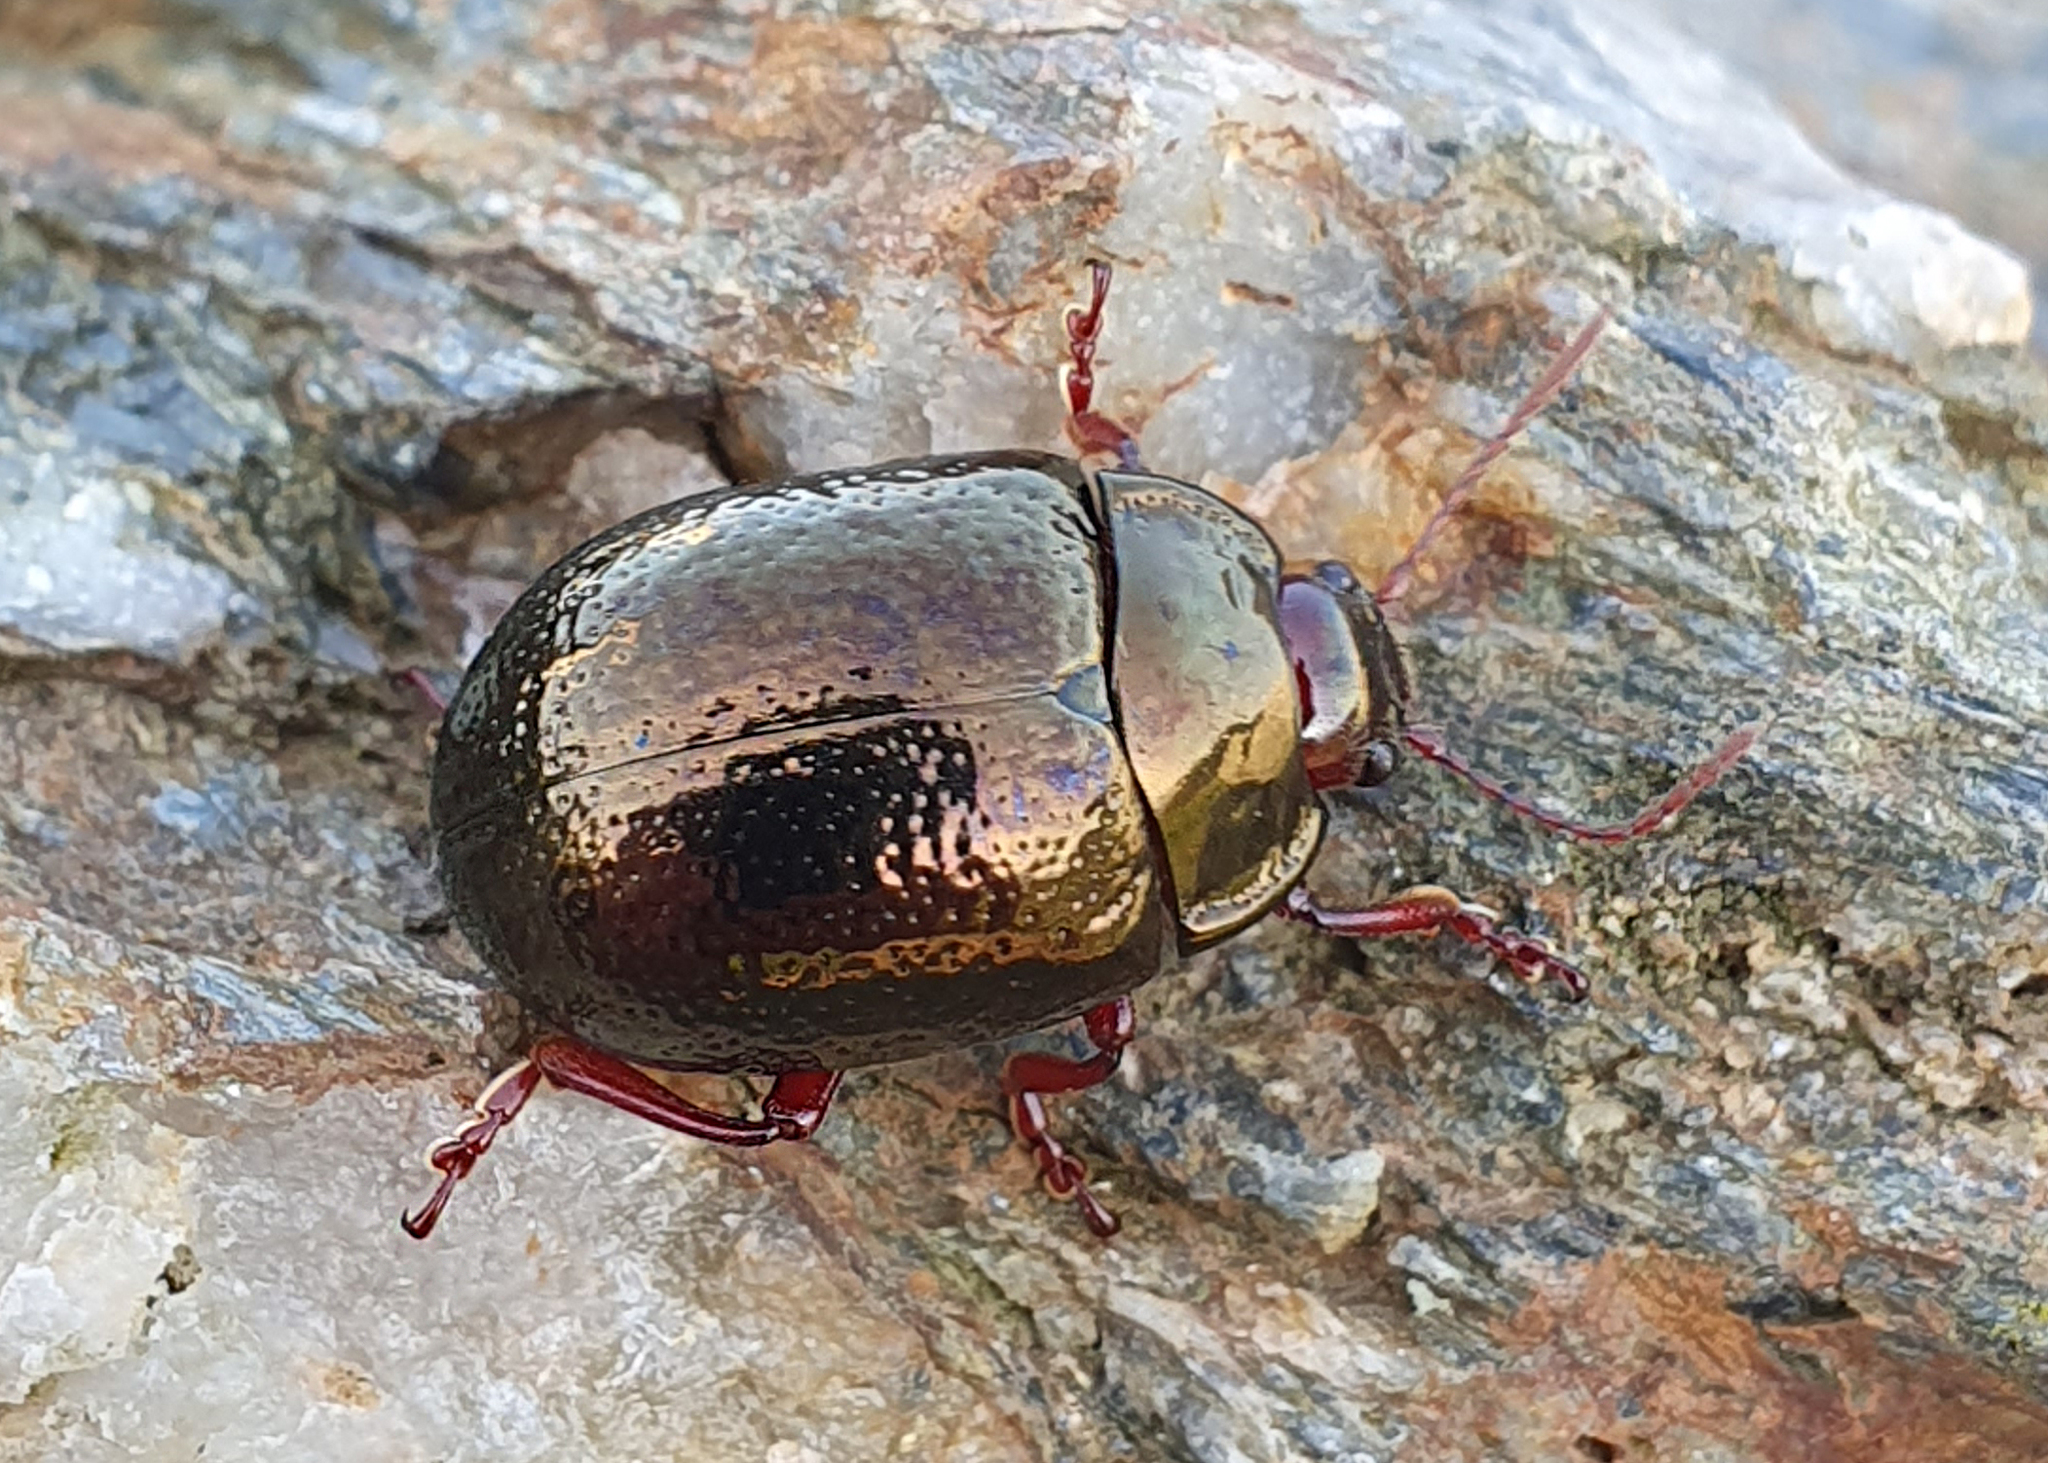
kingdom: Animalia
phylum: Arthropoda
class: Insecta
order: Coleoptera
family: Chrysomelidae
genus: Chrysolina
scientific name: Chrysolina bankii
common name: Leaf beetle
